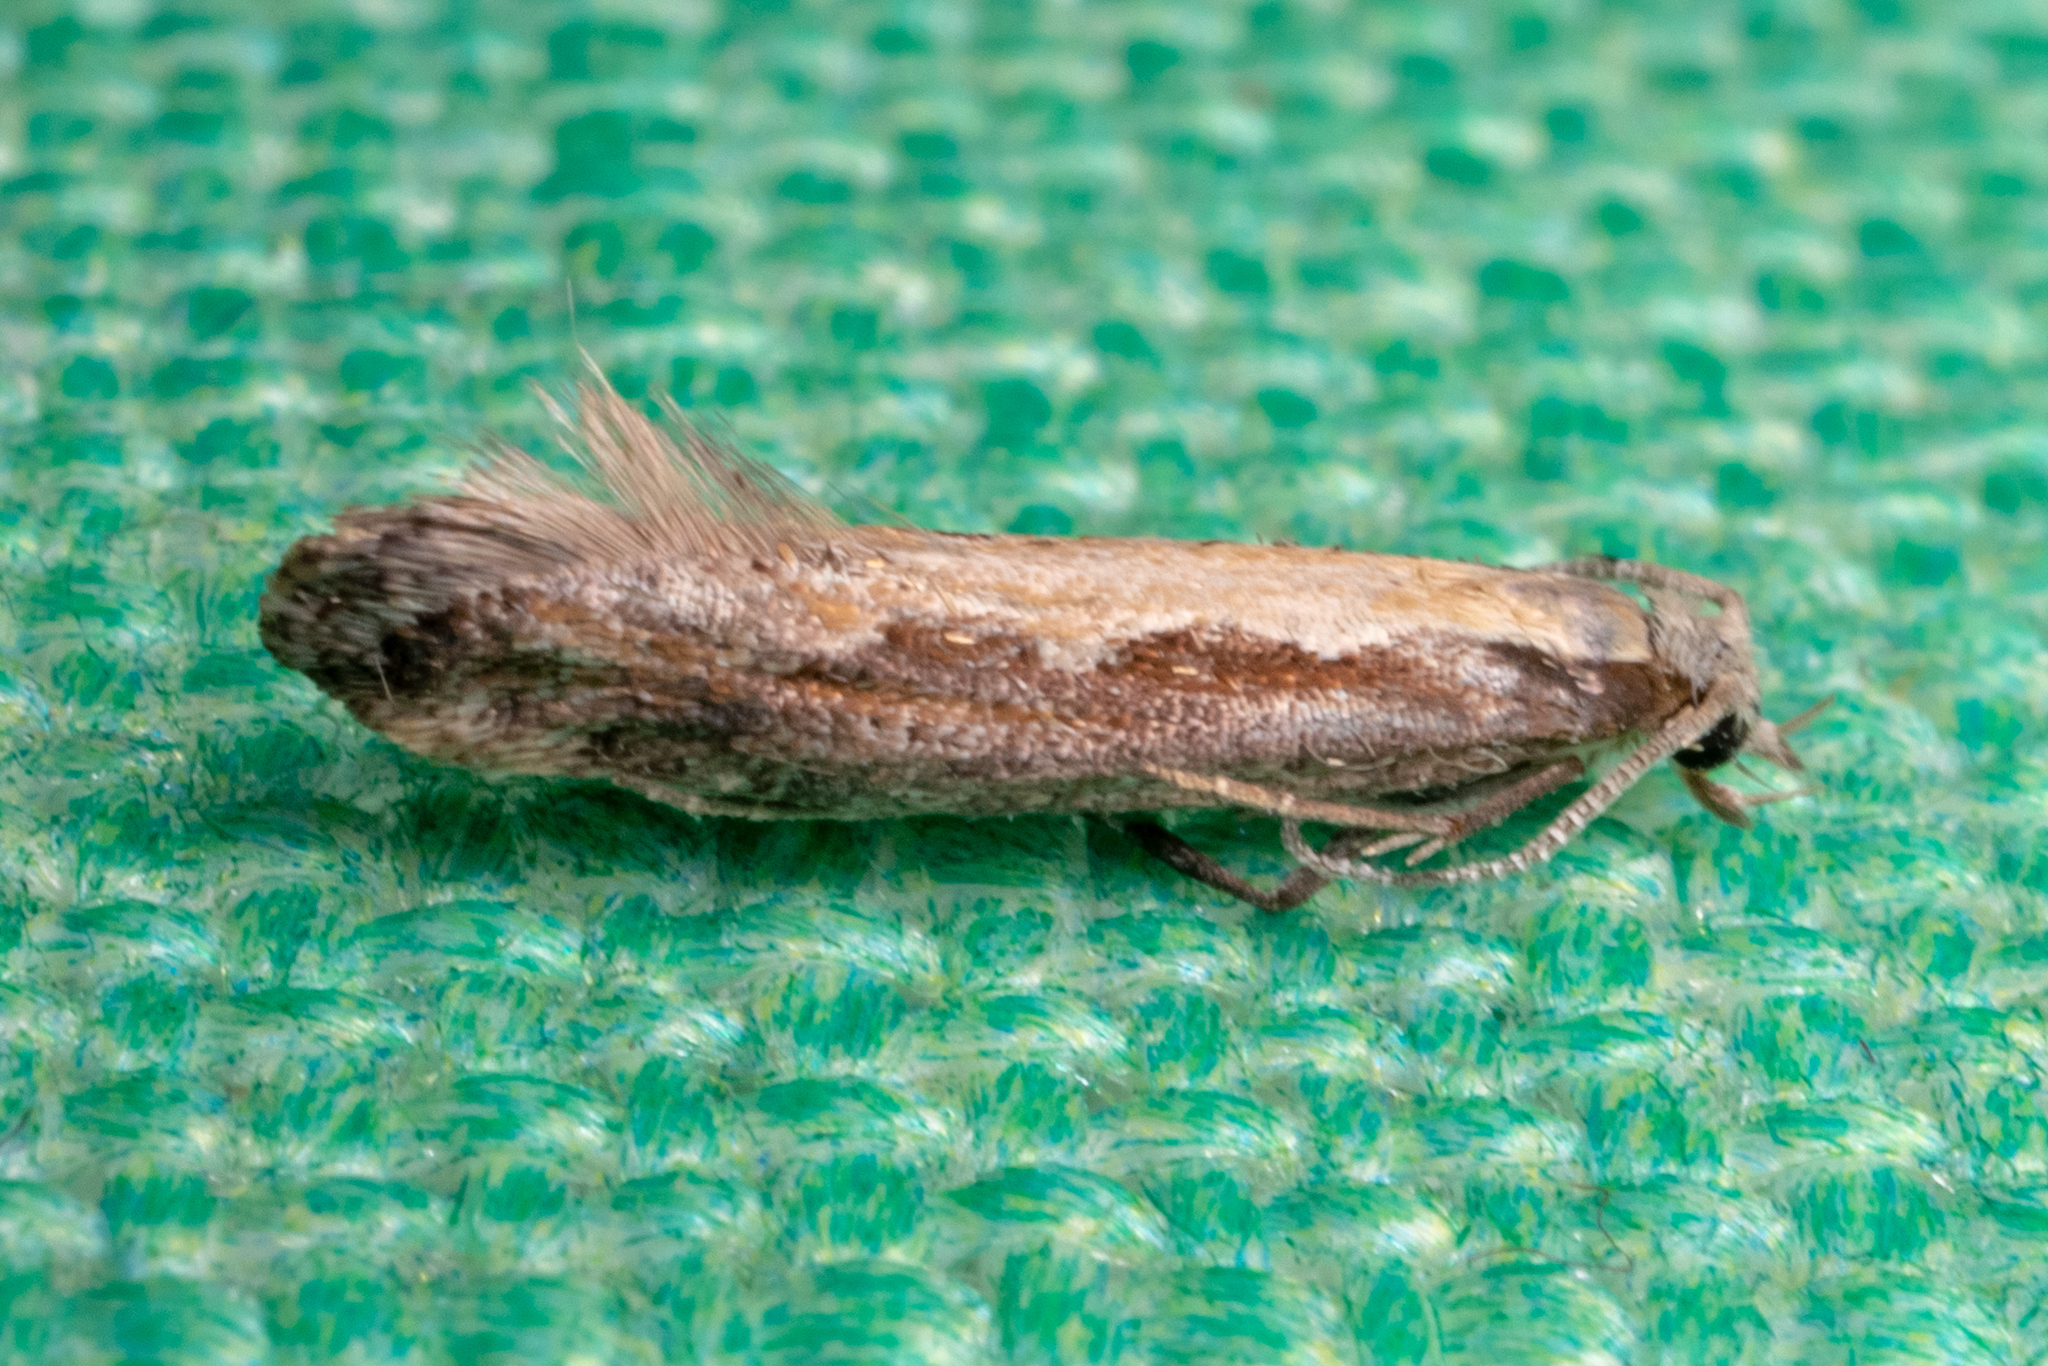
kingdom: Animalia
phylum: Arthropoda
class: Insecta
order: Lepidoptera
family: Plutellidae
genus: Plutella
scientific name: Plutella xylostella
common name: Diamond-back moth
